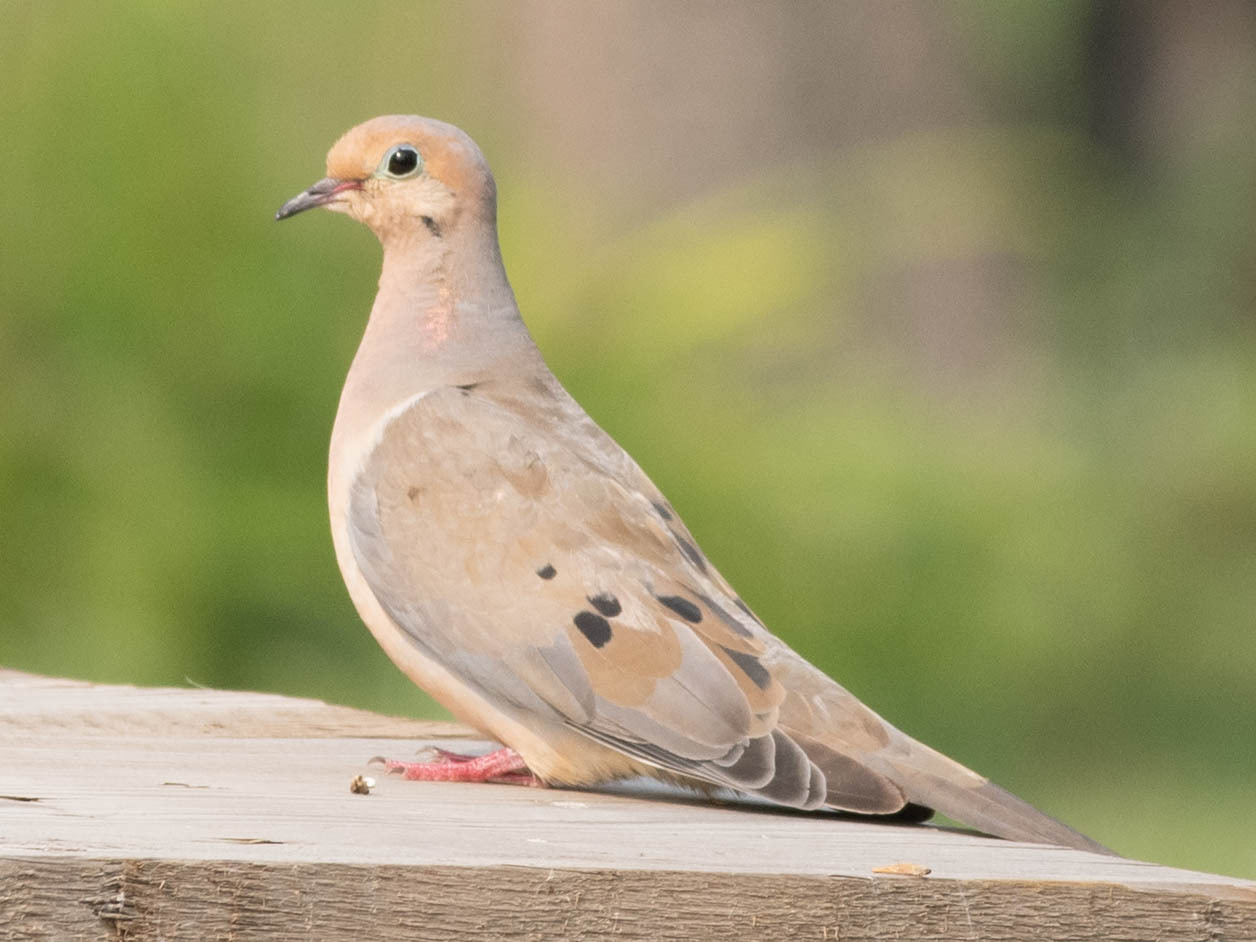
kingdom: Animalia
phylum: Chordata
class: Aves
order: Columbiformes
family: Columbidae
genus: Zenaida
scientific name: Zenaida macroura
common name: Mourning dove
